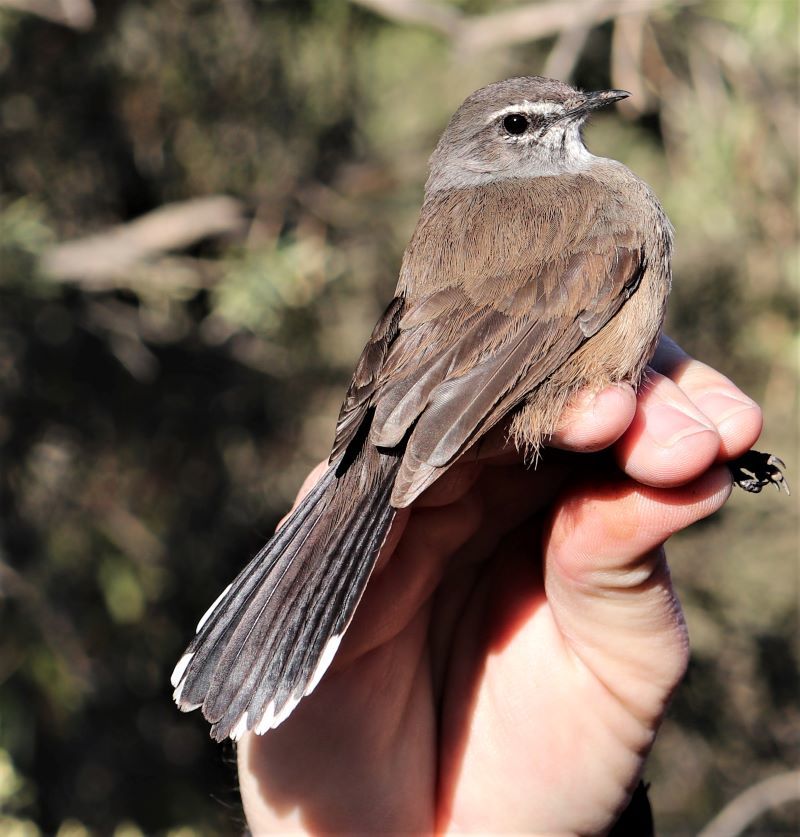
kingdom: Animalia
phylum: Chordata
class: Aves
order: Passeriformes
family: Muscicapidae
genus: Erythropygia
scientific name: Erythropygia coryphoeus
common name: Karoo scrub robin
